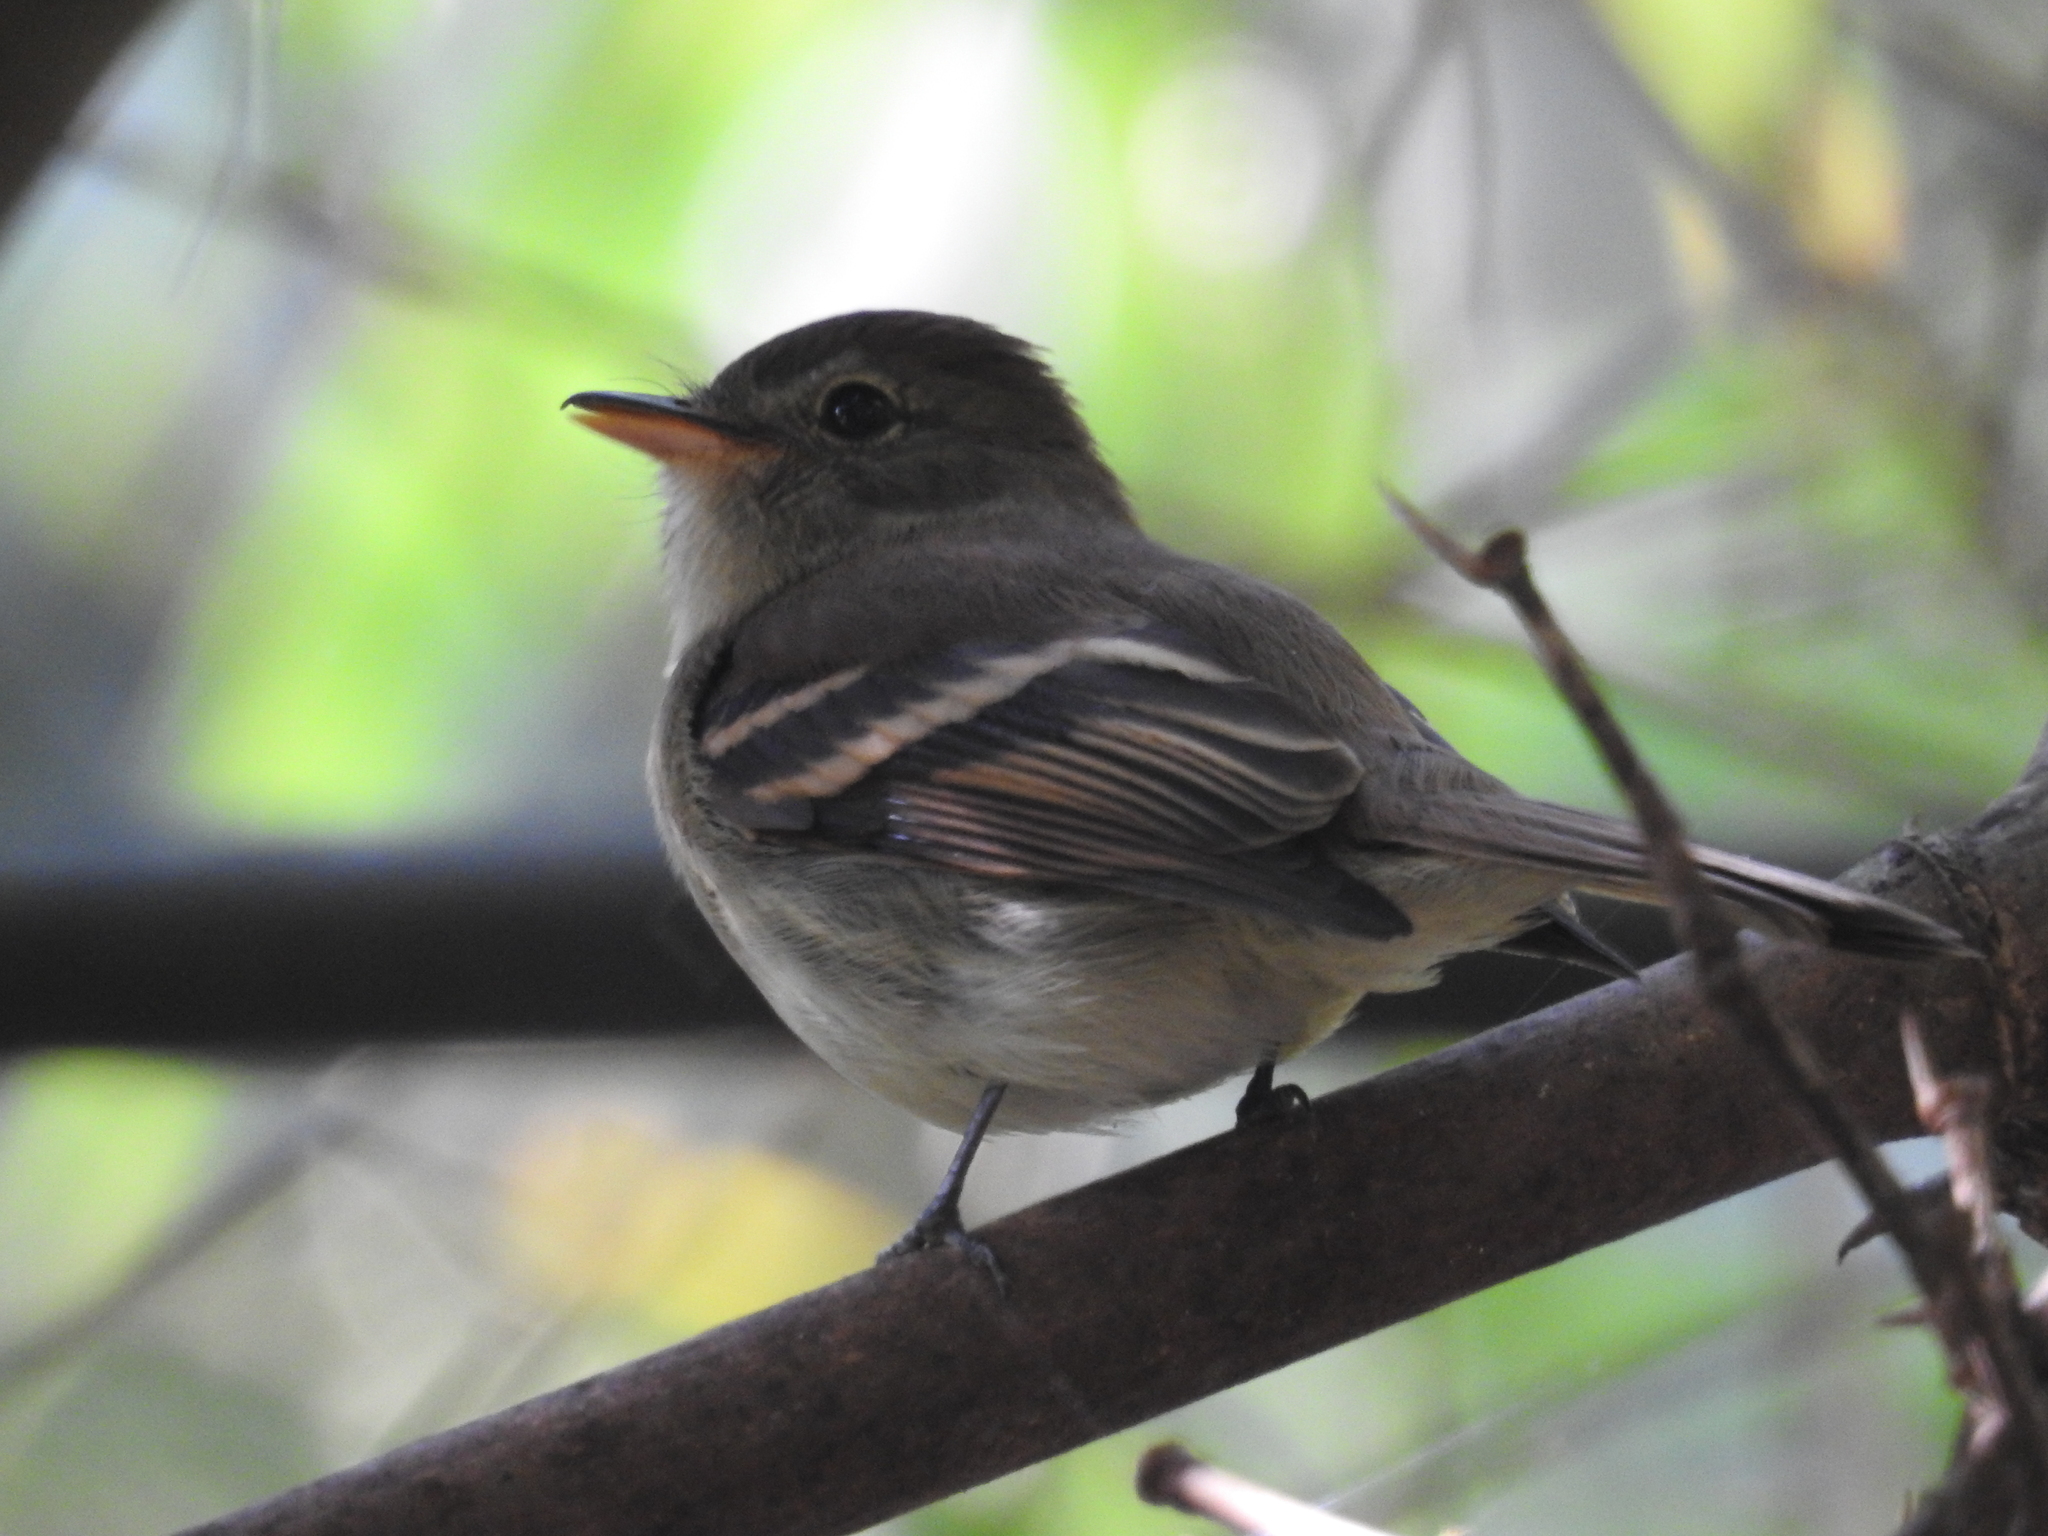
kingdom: Animalia
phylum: Chordata
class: Aves
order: Passeriformes
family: Tyrannidae
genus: Lathrotriccus
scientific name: Lathrotriccus euleri
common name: Euler's flycatcher
